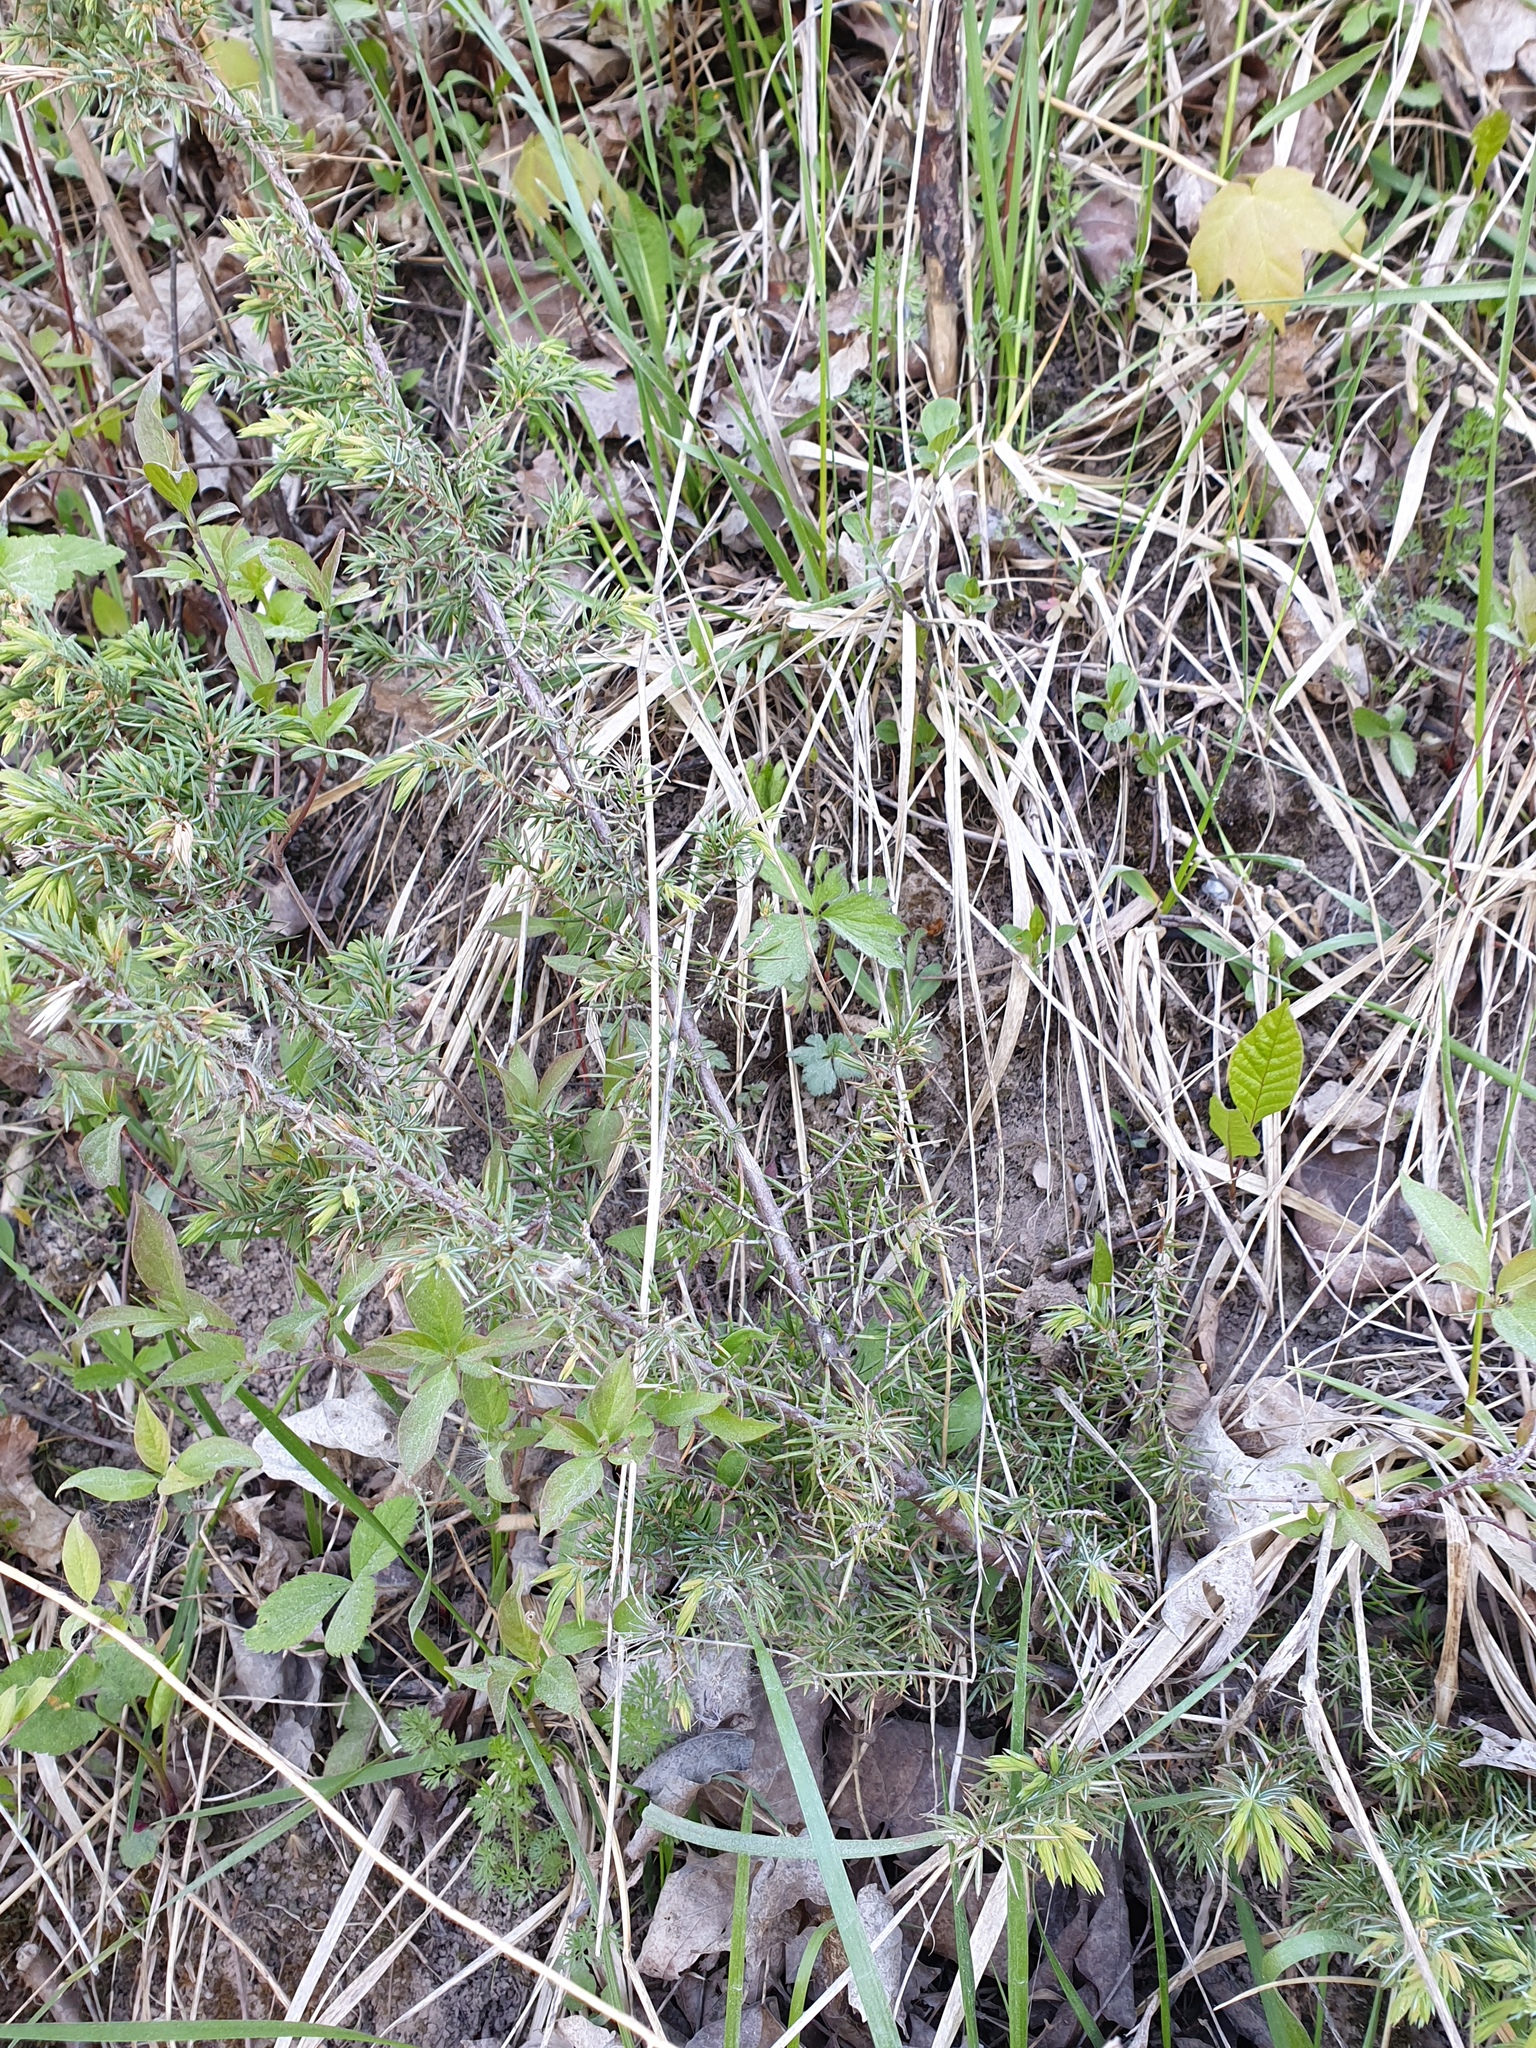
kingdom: Plantae
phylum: Tracheophyta
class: Pinopsida
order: Pinales
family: Cupressaceae
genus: Juniperus
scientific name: Juniperus communis
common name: Common juniper
